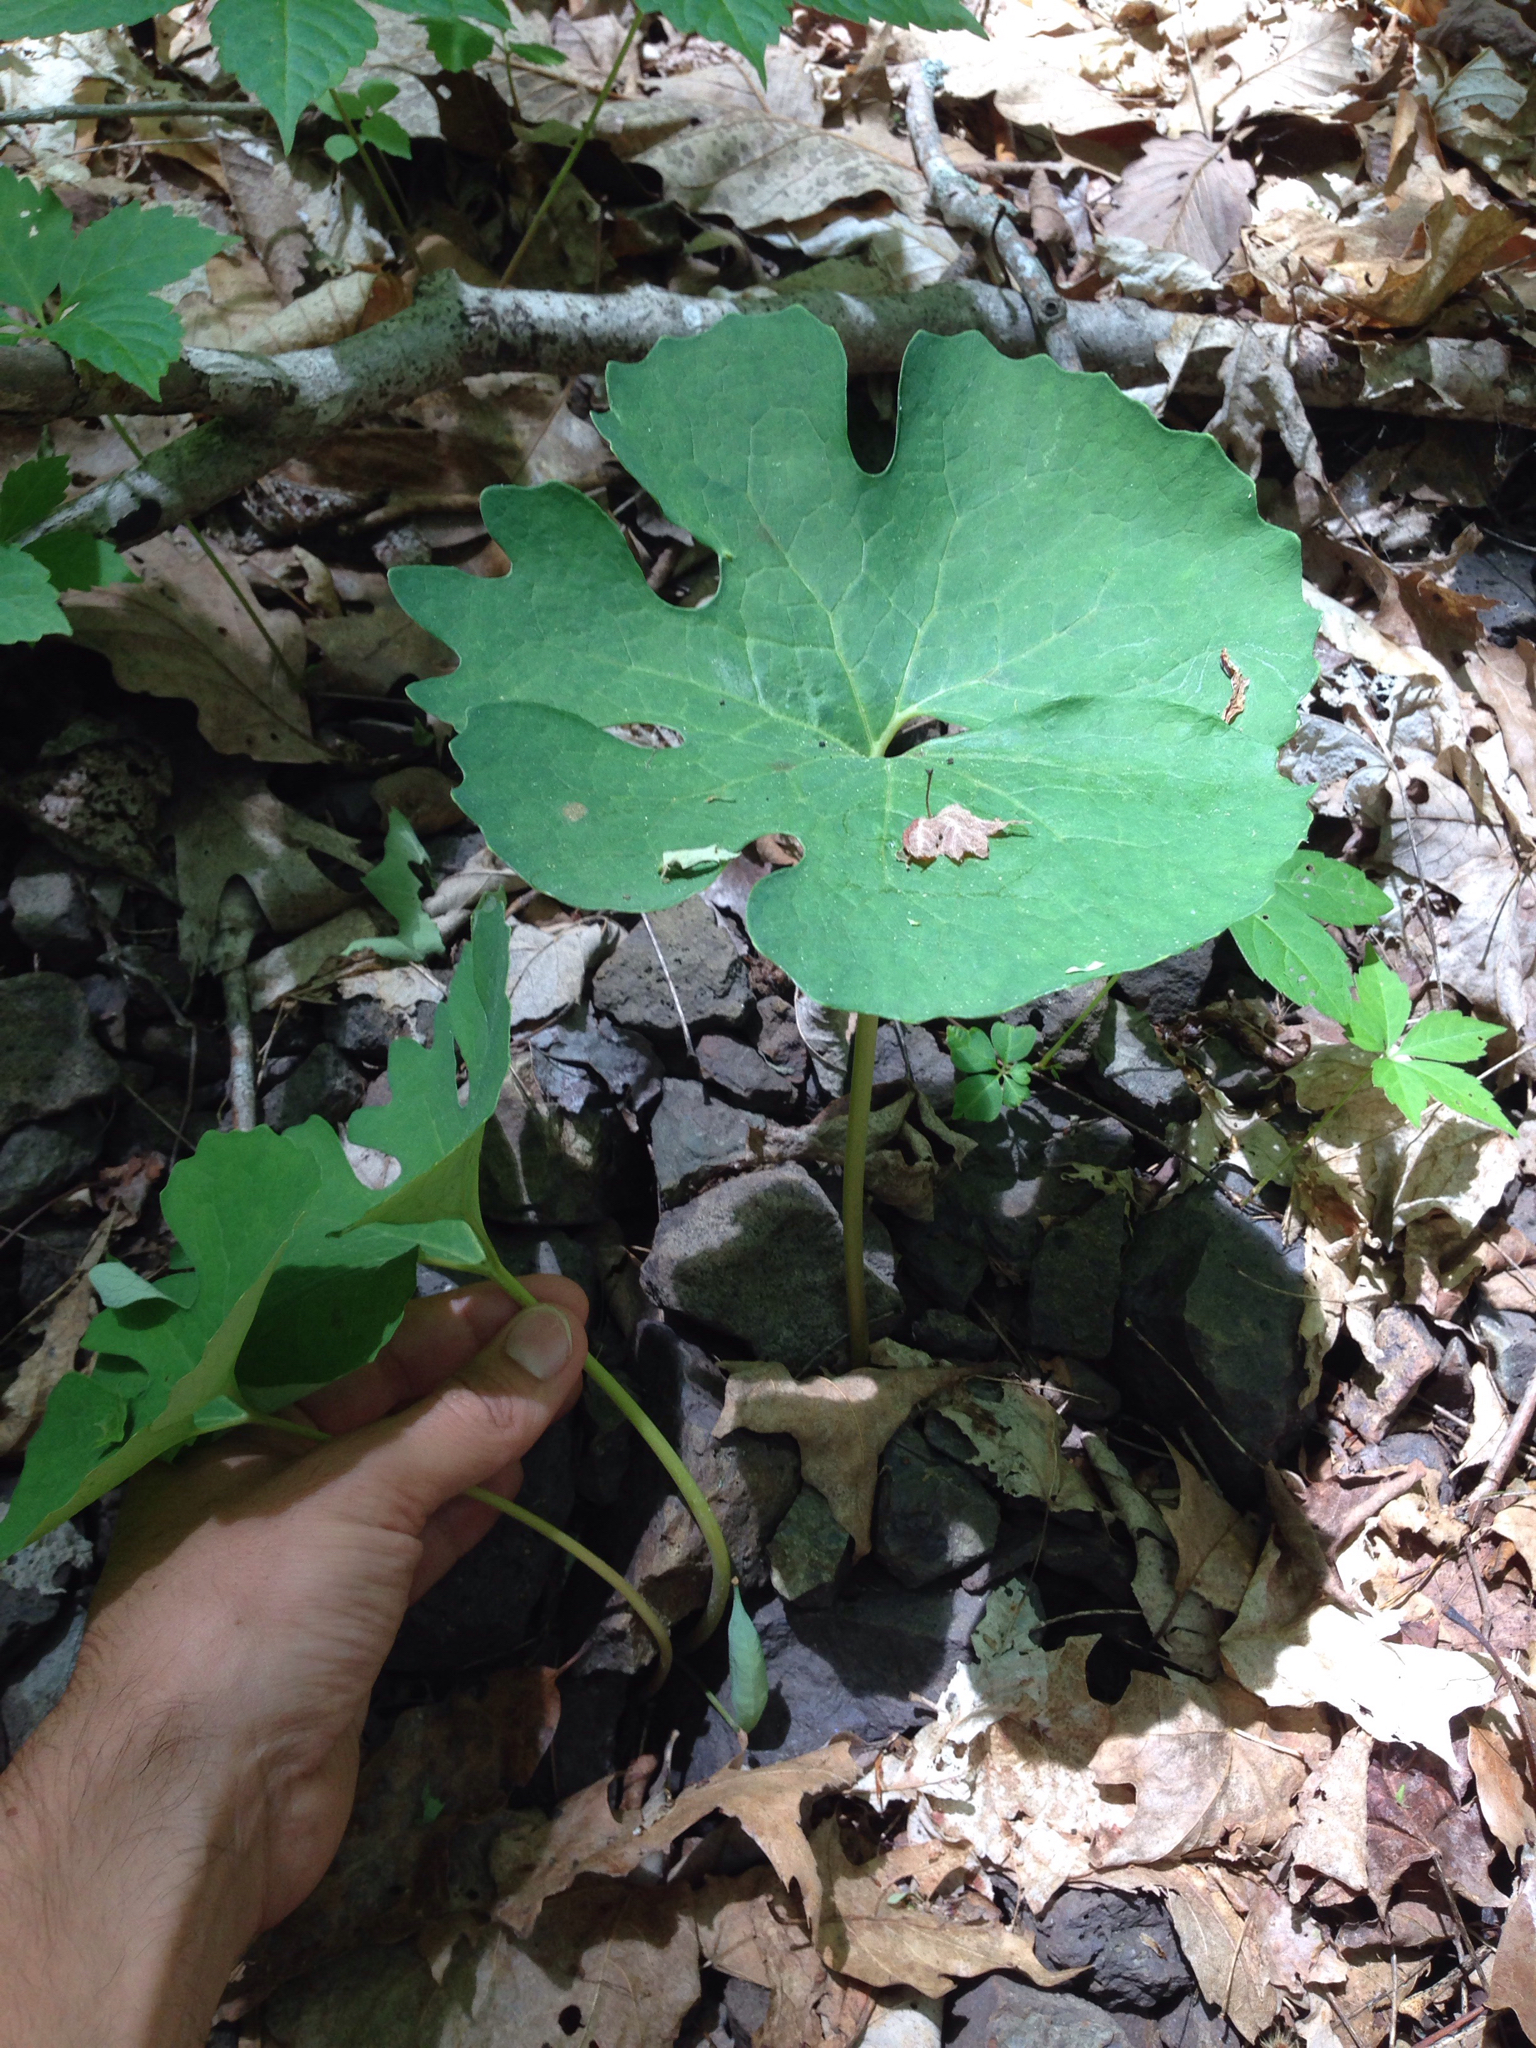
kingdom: Plantae
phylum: Tracheophyta
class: Magnoliopsida
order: Ranunculales
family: Papaveraceae
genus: Sanguinaria
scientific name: Sanguinaria canadensis
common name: Bloodroot
